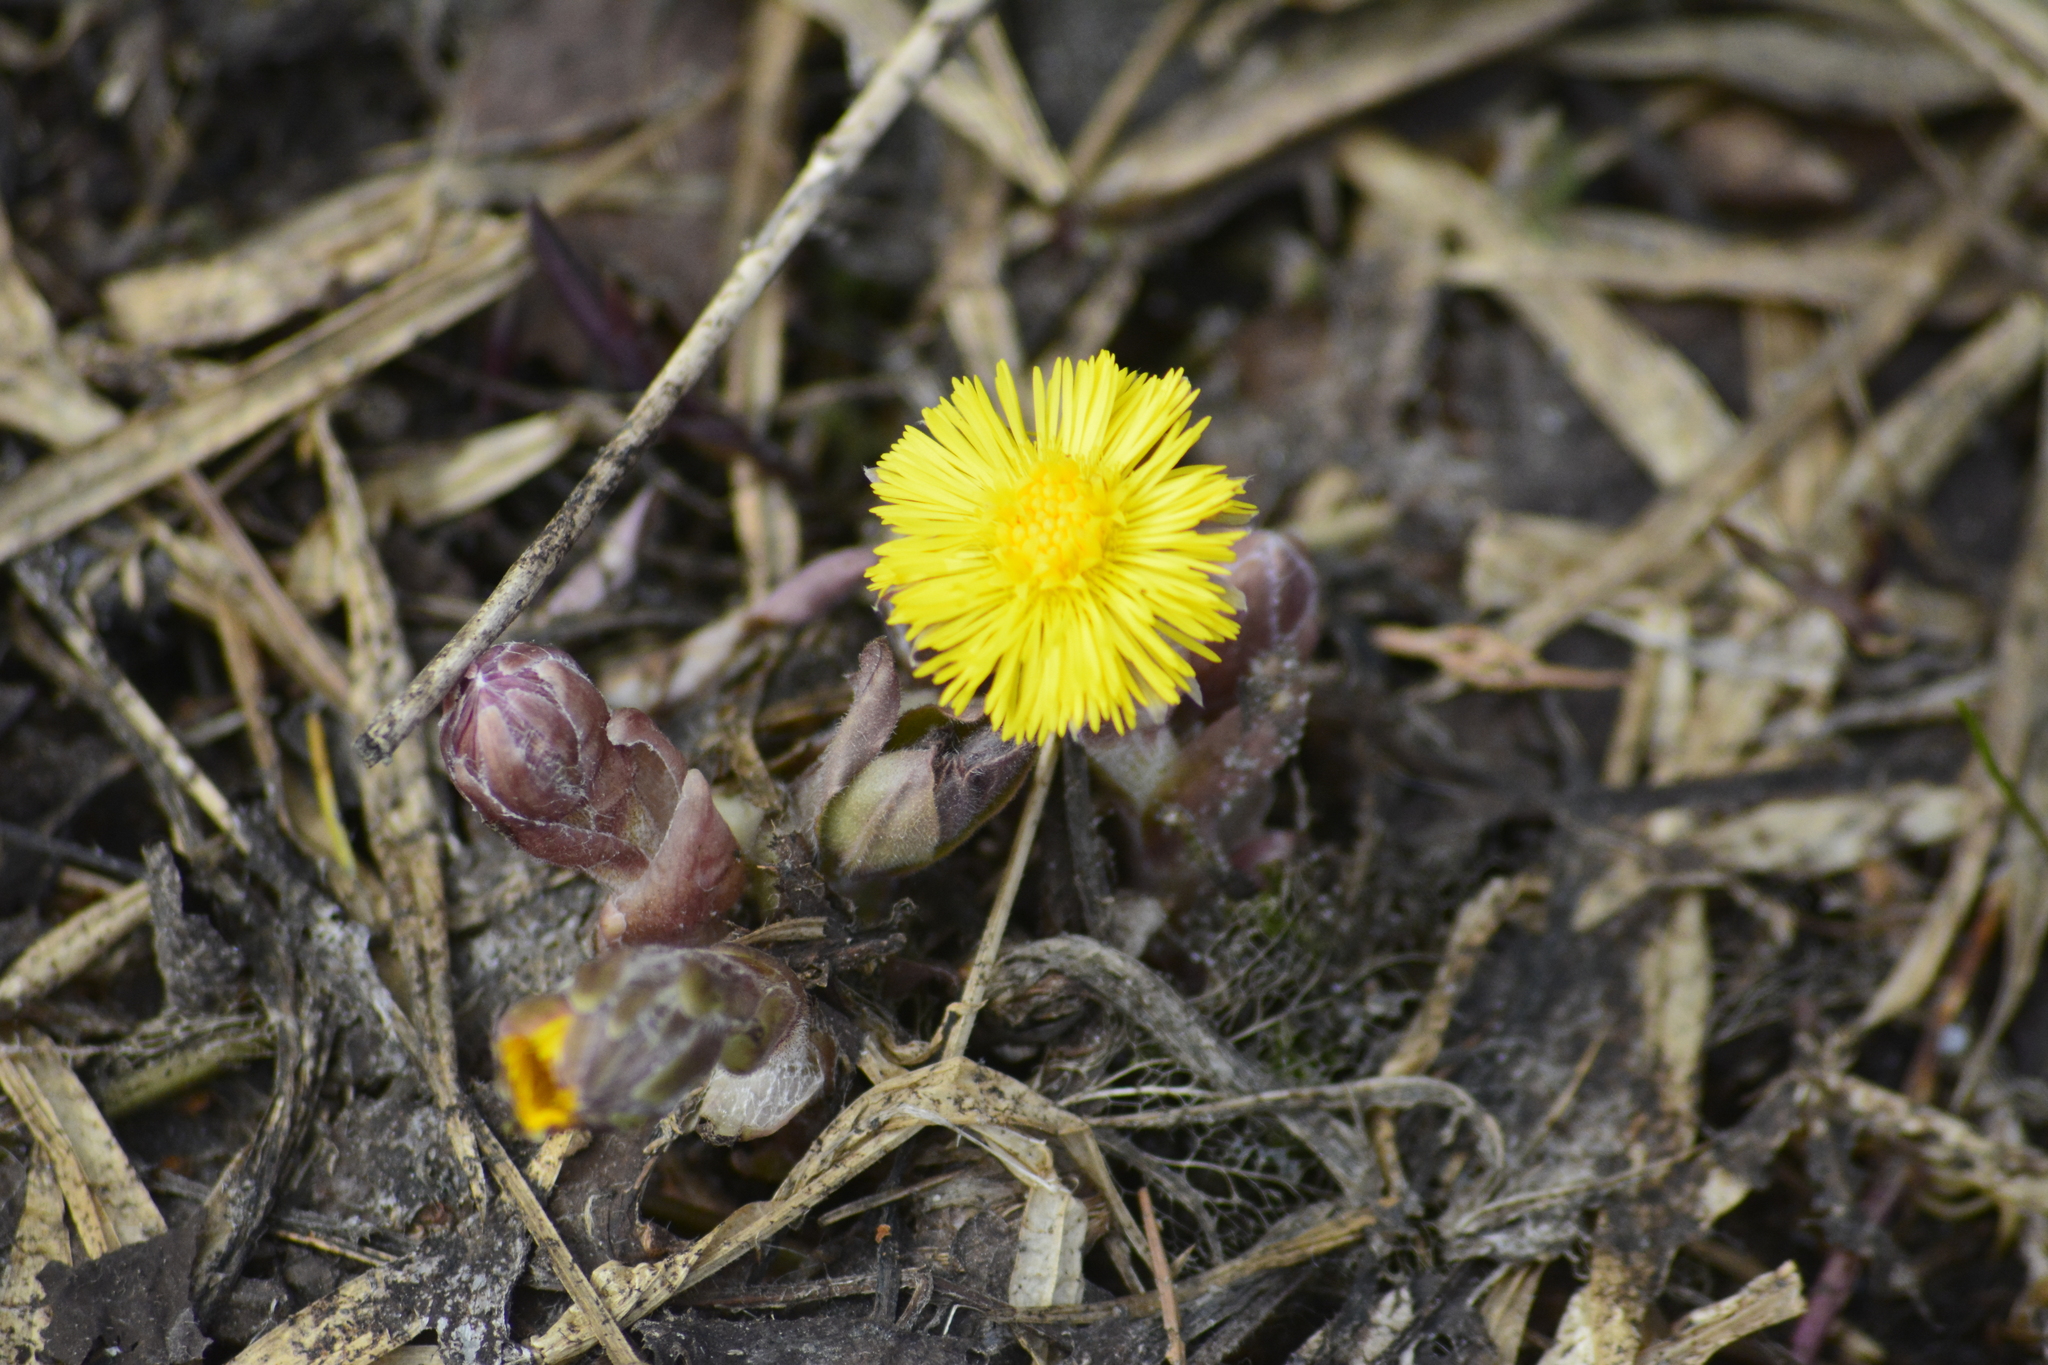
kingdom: Plantae
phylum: Tracheophyta
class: Magnoliopsida
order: Asterales
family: Asteraceae
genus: Tussilago
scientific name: Tussilago farfara
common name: Coltsfoot
